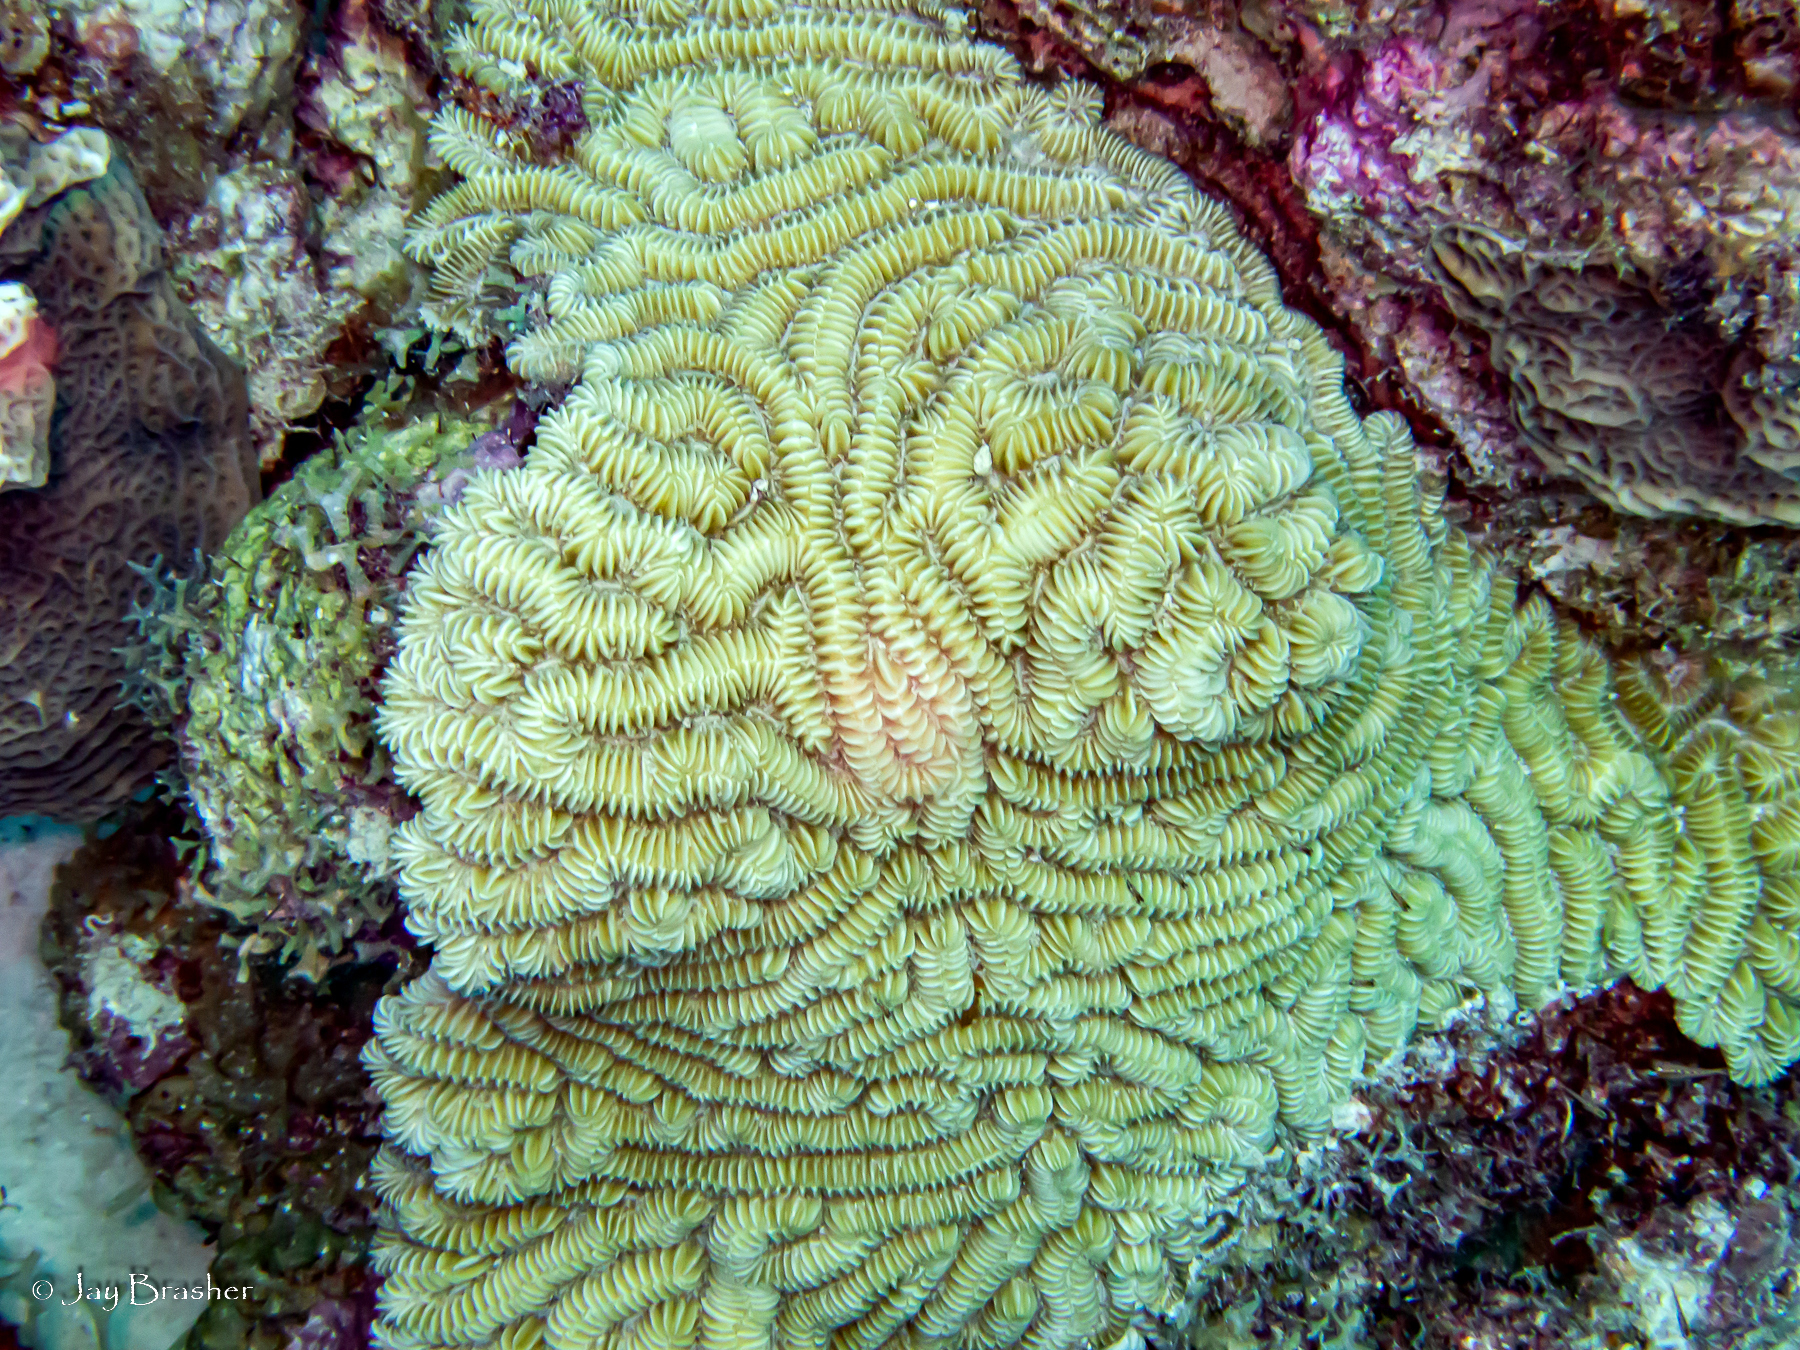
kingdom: Animalia
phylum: Cnidaria
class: Anthozoa
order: Scleractinia
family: Meandrinidae
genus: Meandrina
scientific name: Meandrina meandrites
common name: Maze coral
